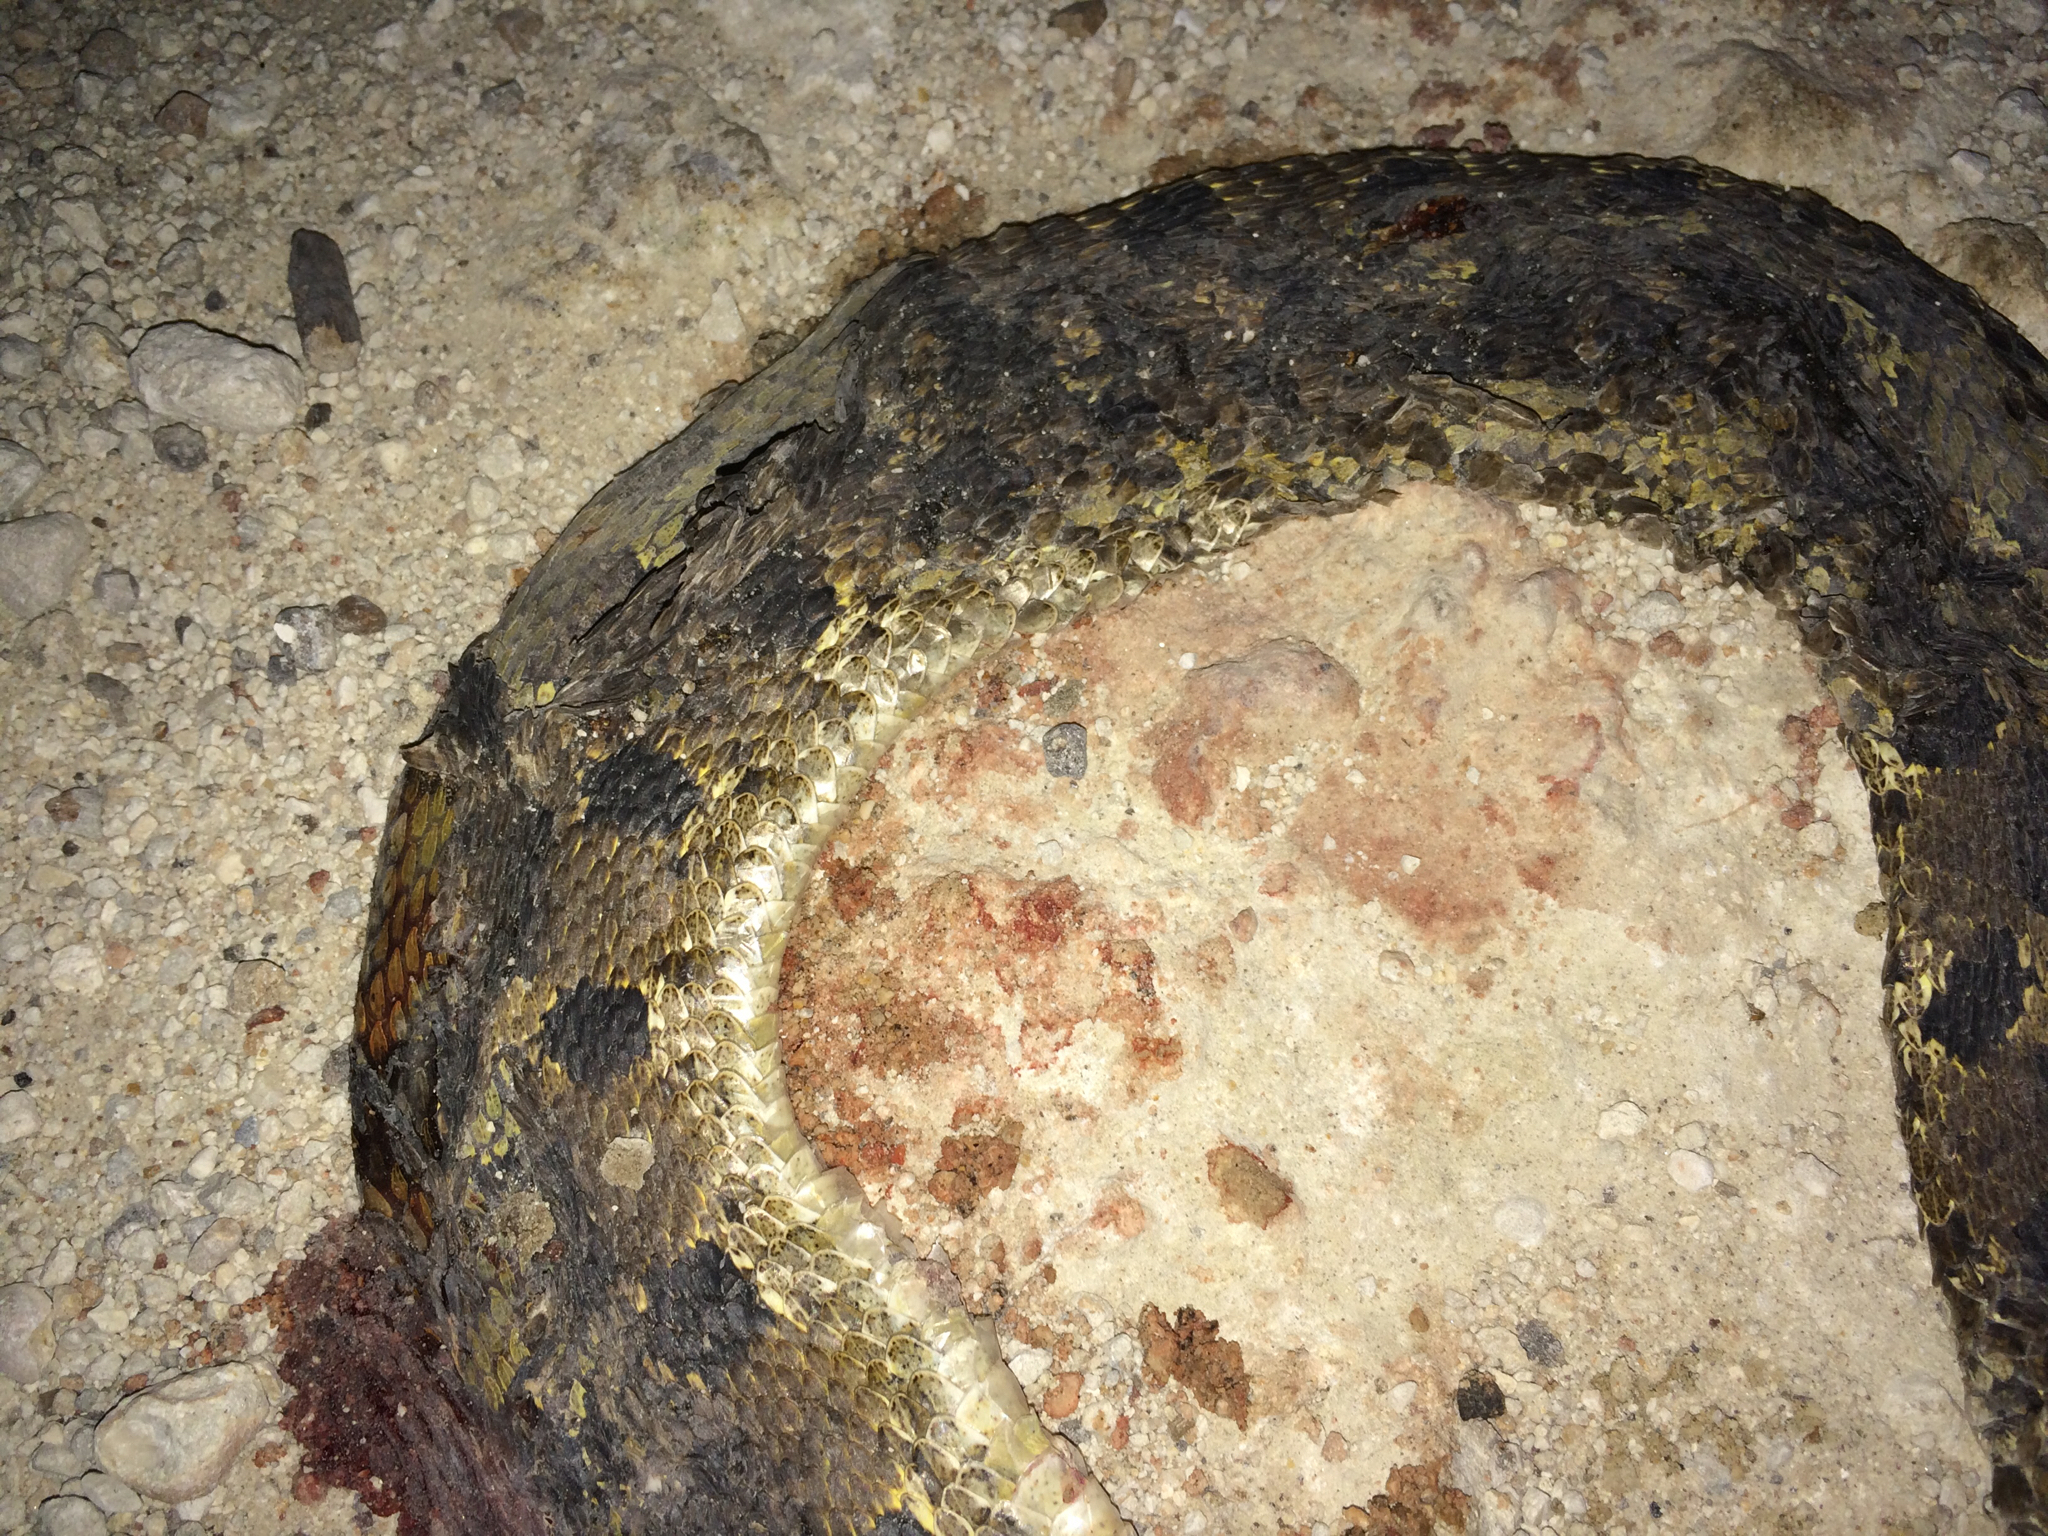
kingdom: Animalia
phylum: Chordata
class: Squamata
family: Colubridae
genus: Heterodon
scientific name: Heterodon platirhinos
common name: Eastern hognose snake
